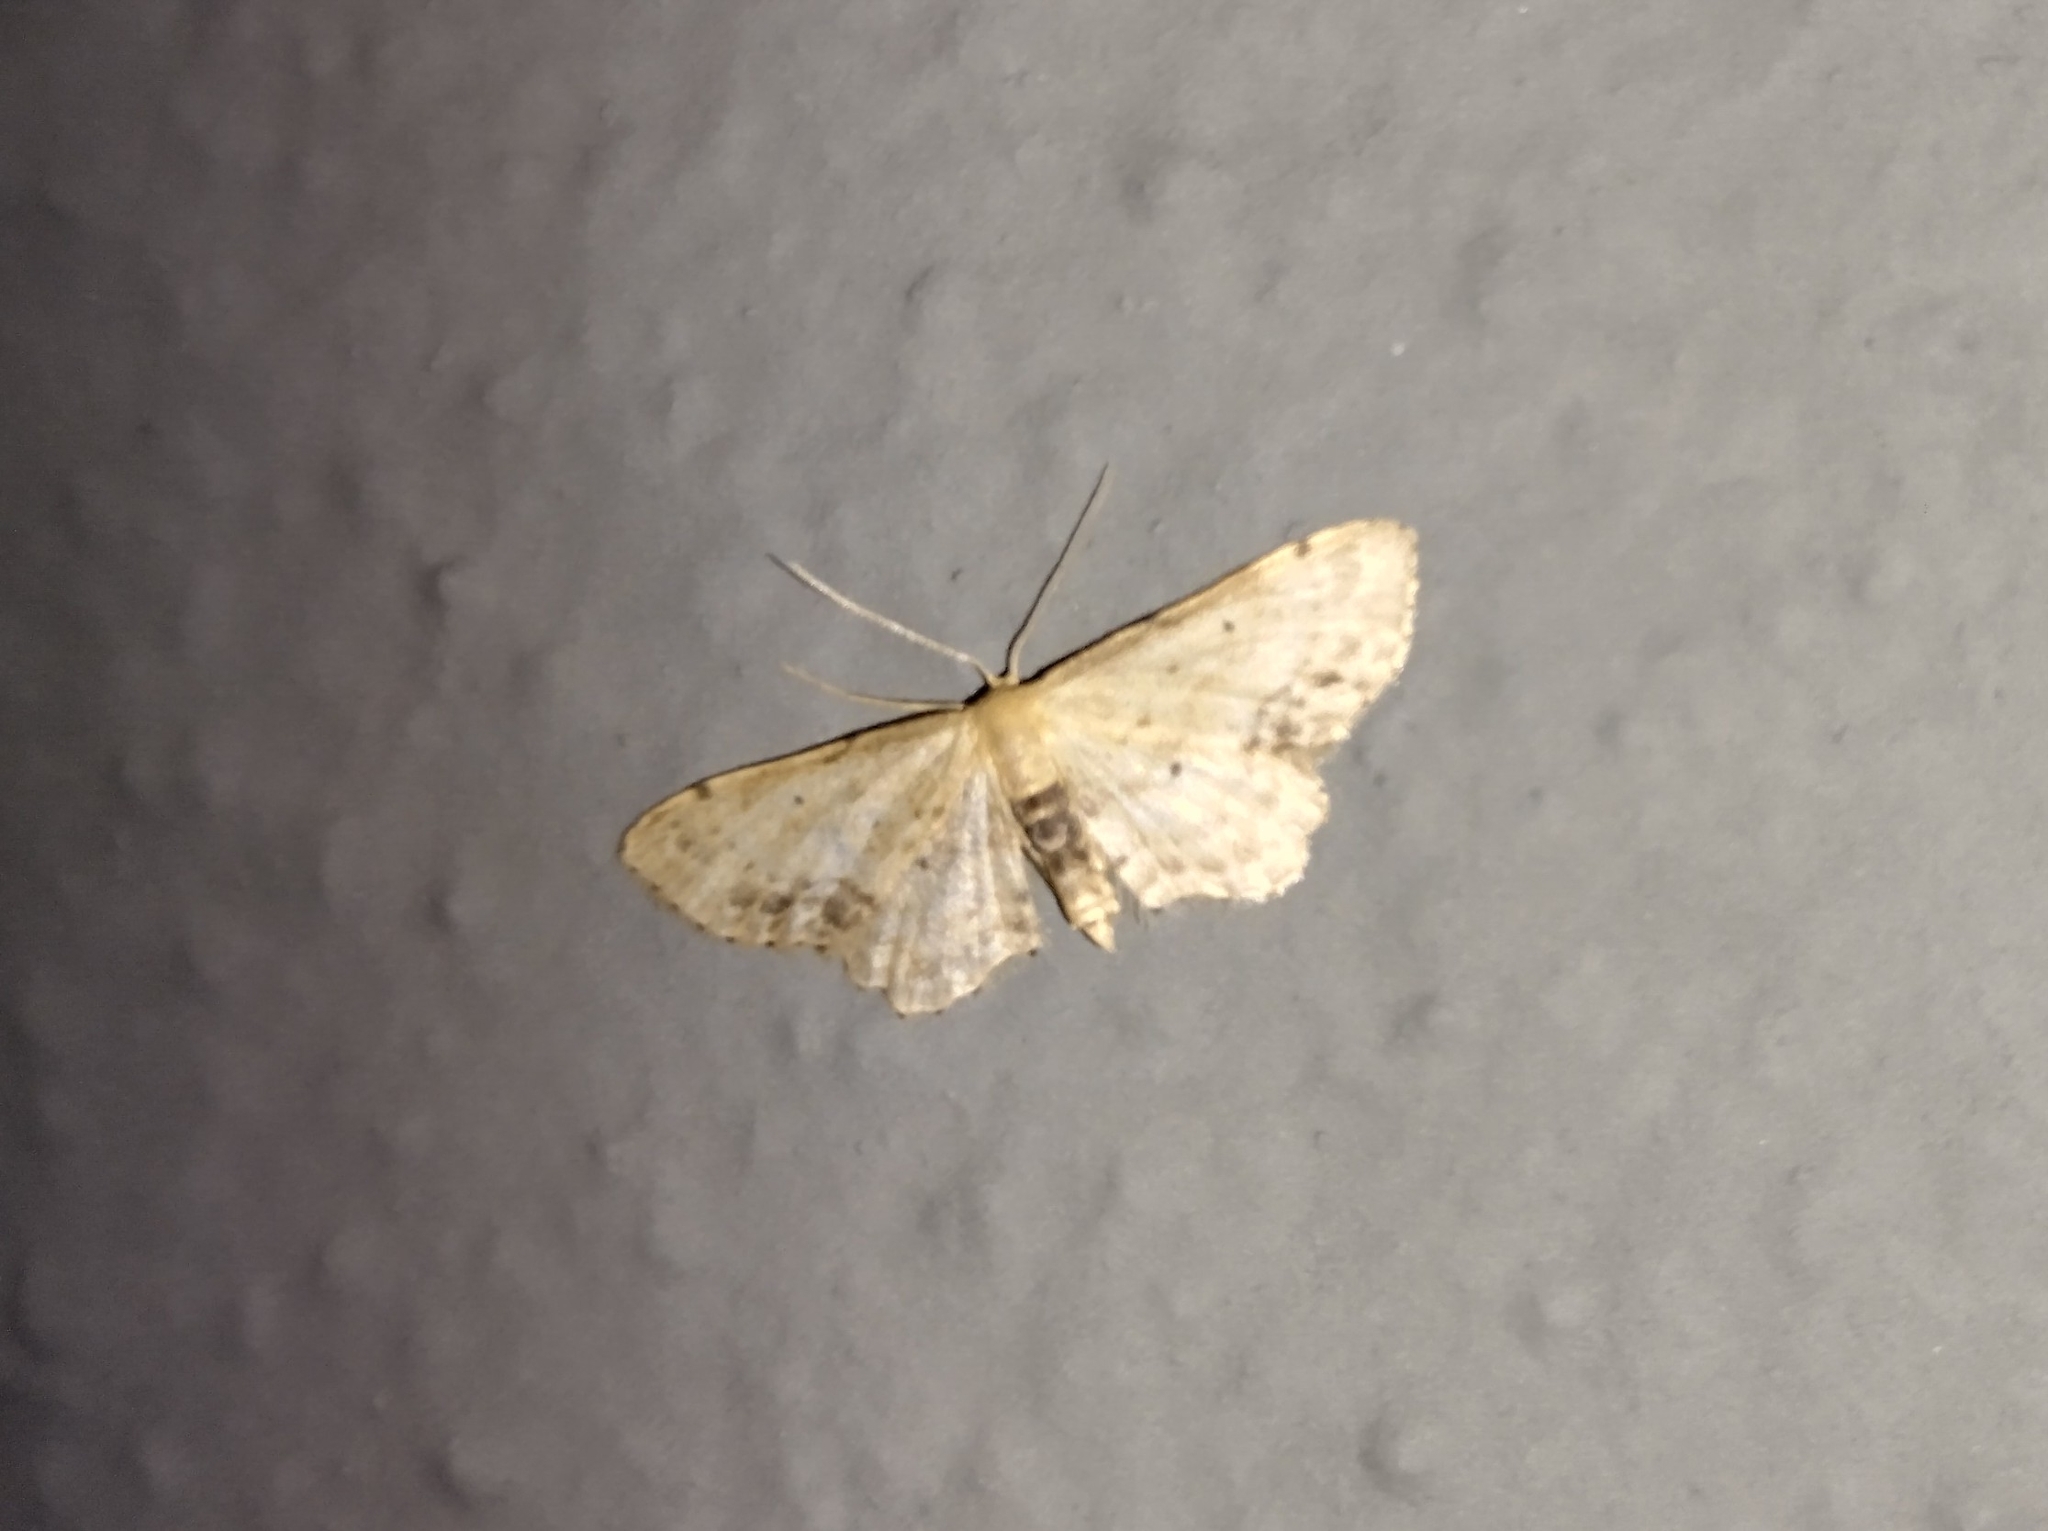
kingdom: Animalia
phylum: Arthropoda
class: Insecta
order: Lepidoptera
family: Geometridae
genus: Idaea
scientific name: Idaea dimidiata
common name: Single-dotted wave
